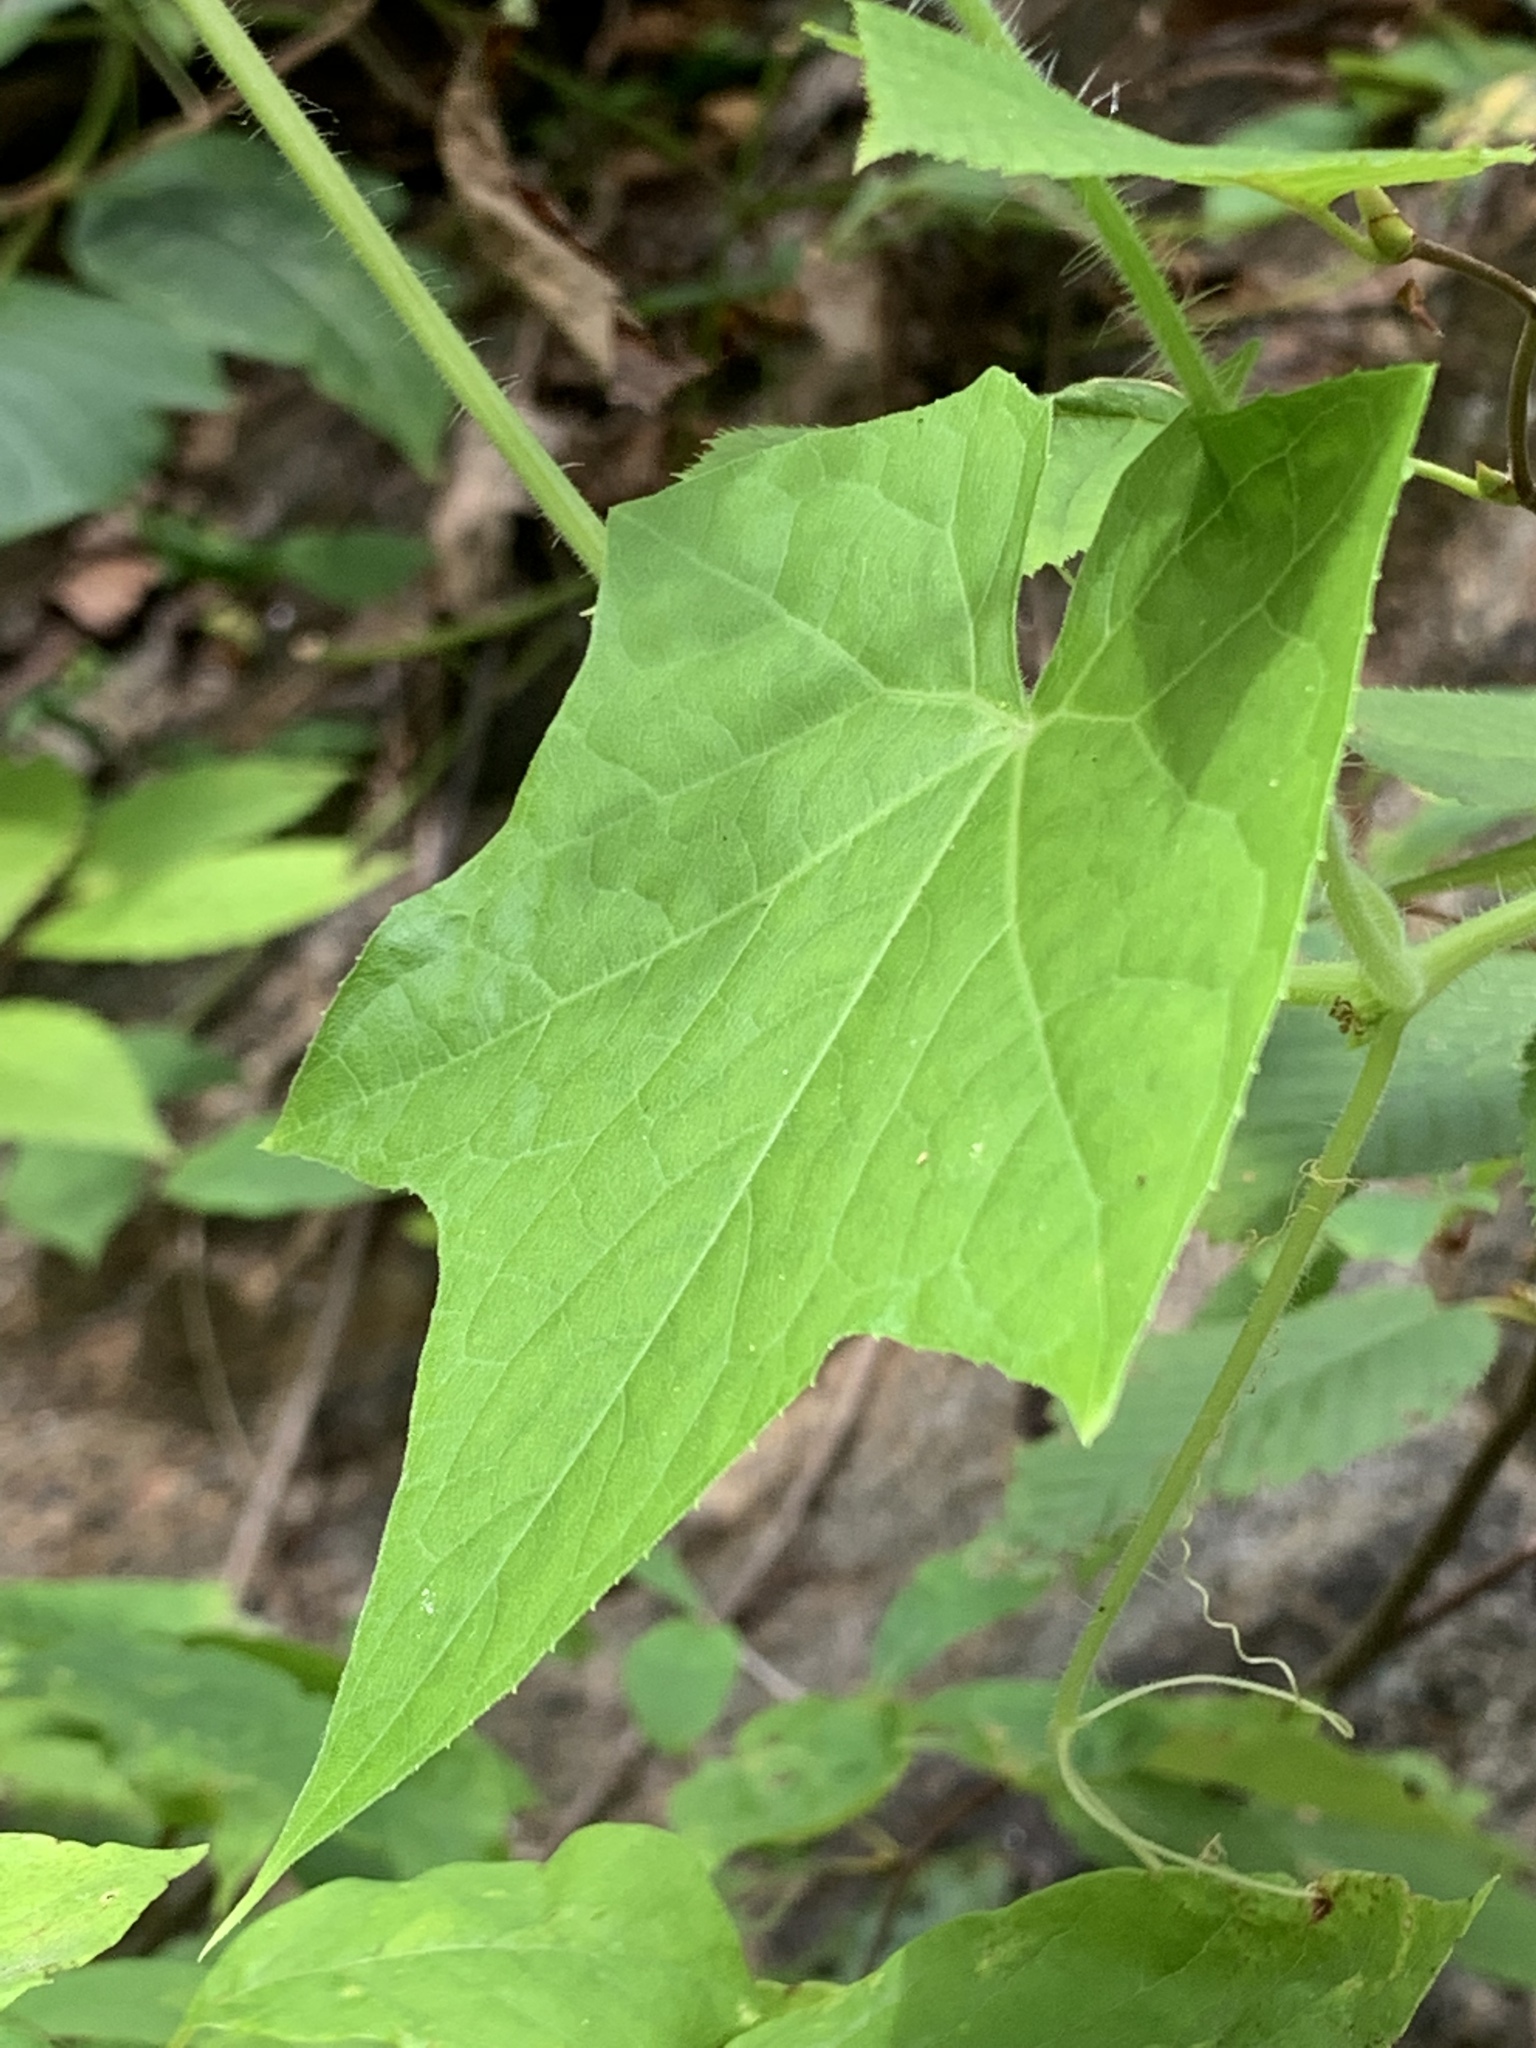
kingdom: Plantae
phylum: Tracheophyta
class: Magnoliopsida
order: Cucurbitales
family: Cucurbitaceae
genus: Sicyos
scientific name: Sicyos angulatus
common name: Angled burr cucumber
